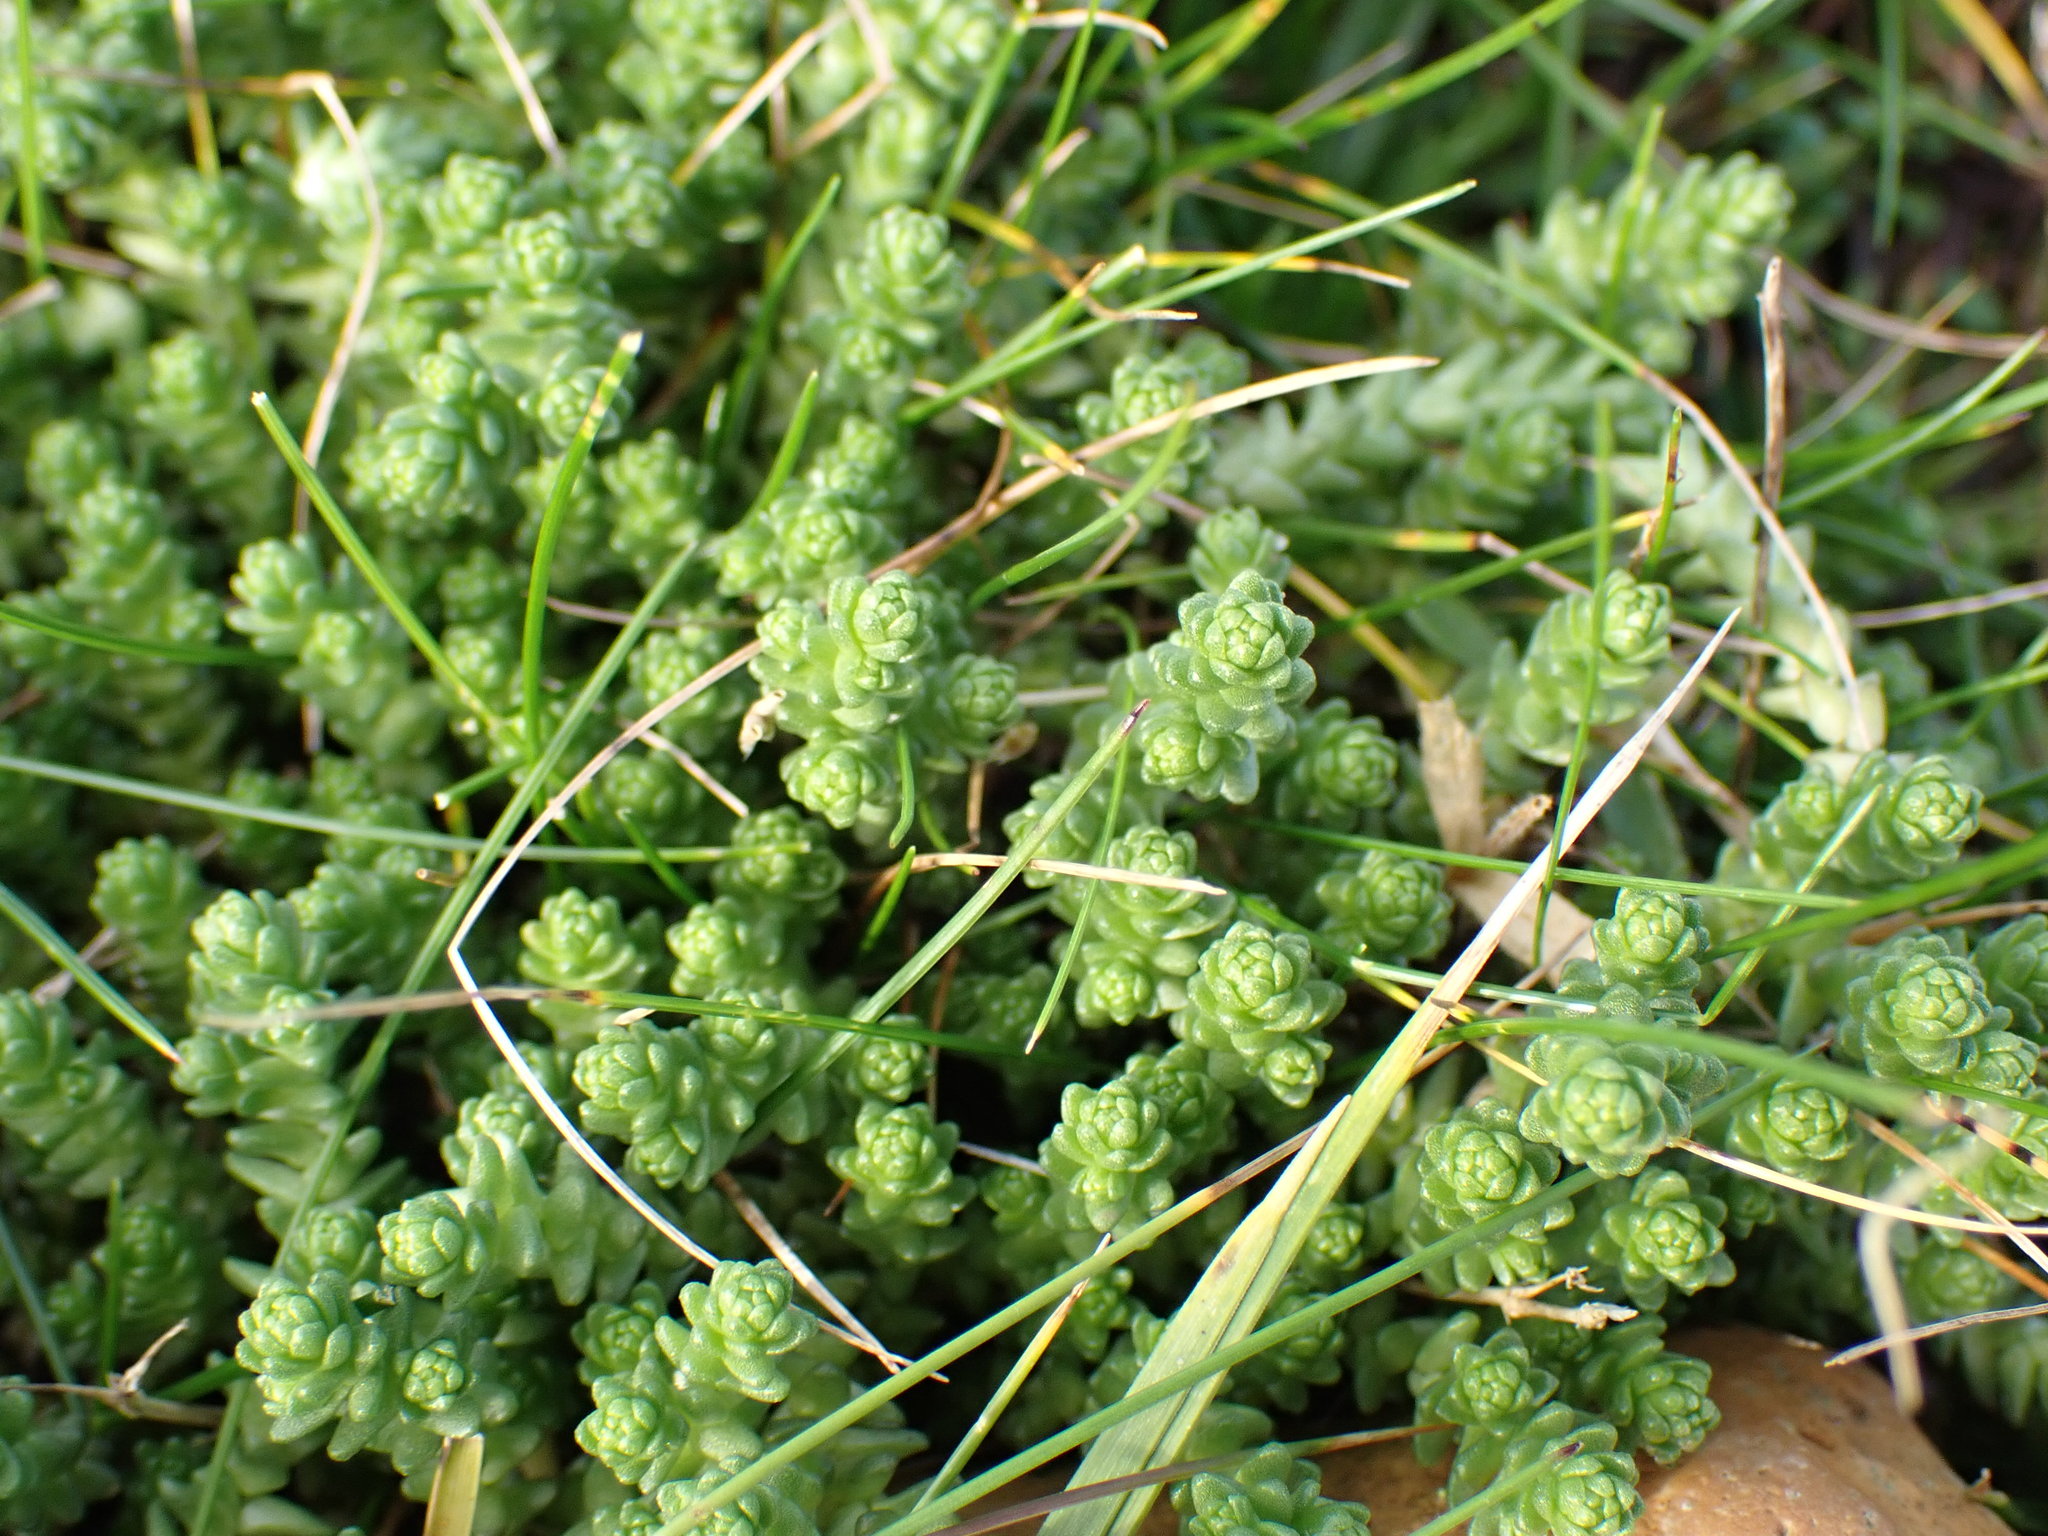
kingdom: Plantae
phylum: Tracheophyta
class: Magnoliopsida
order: Saxifragales
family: Crassulaceae
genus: Sedum
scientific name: Sedum acre
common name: Biting stonecrop
